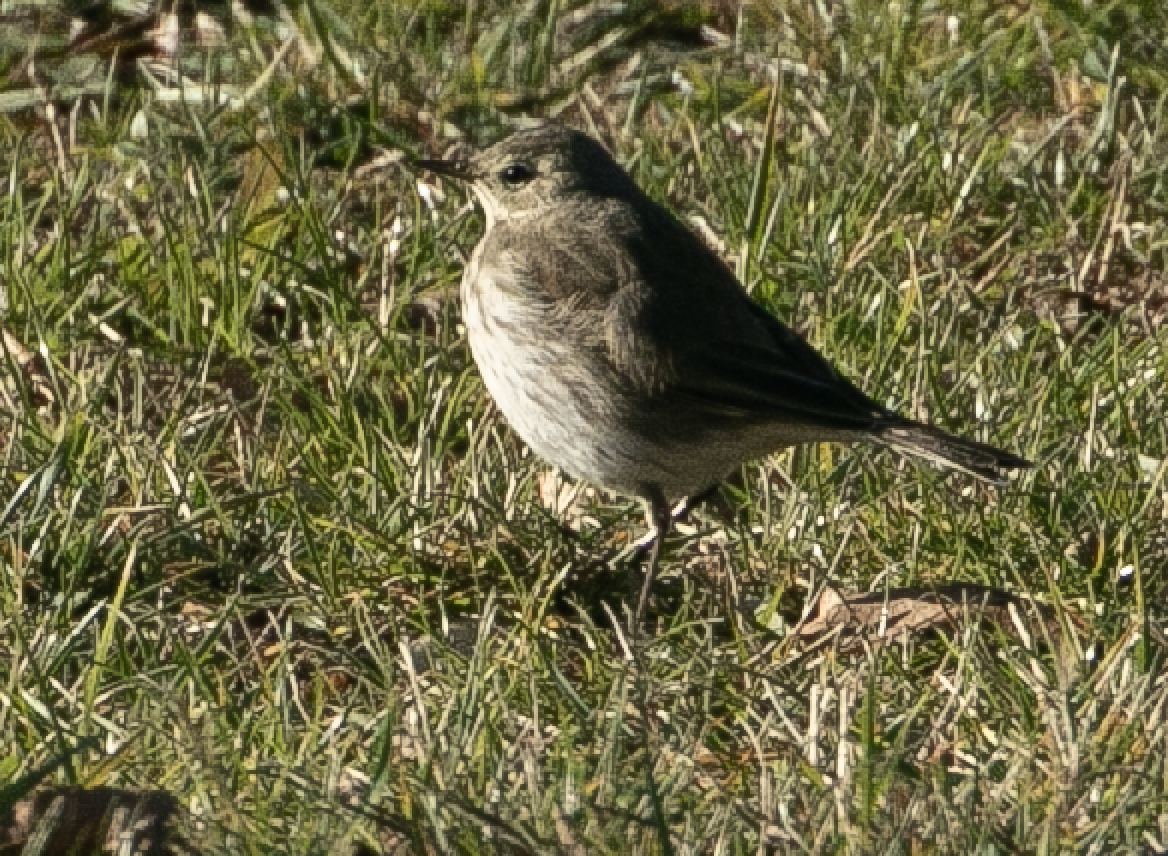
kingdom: Animalia
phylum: Chordata
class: Aves
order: Passeriformes
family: Motacillidae
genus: Anthus
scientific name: Anthus spinoletta
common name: Water pipit
